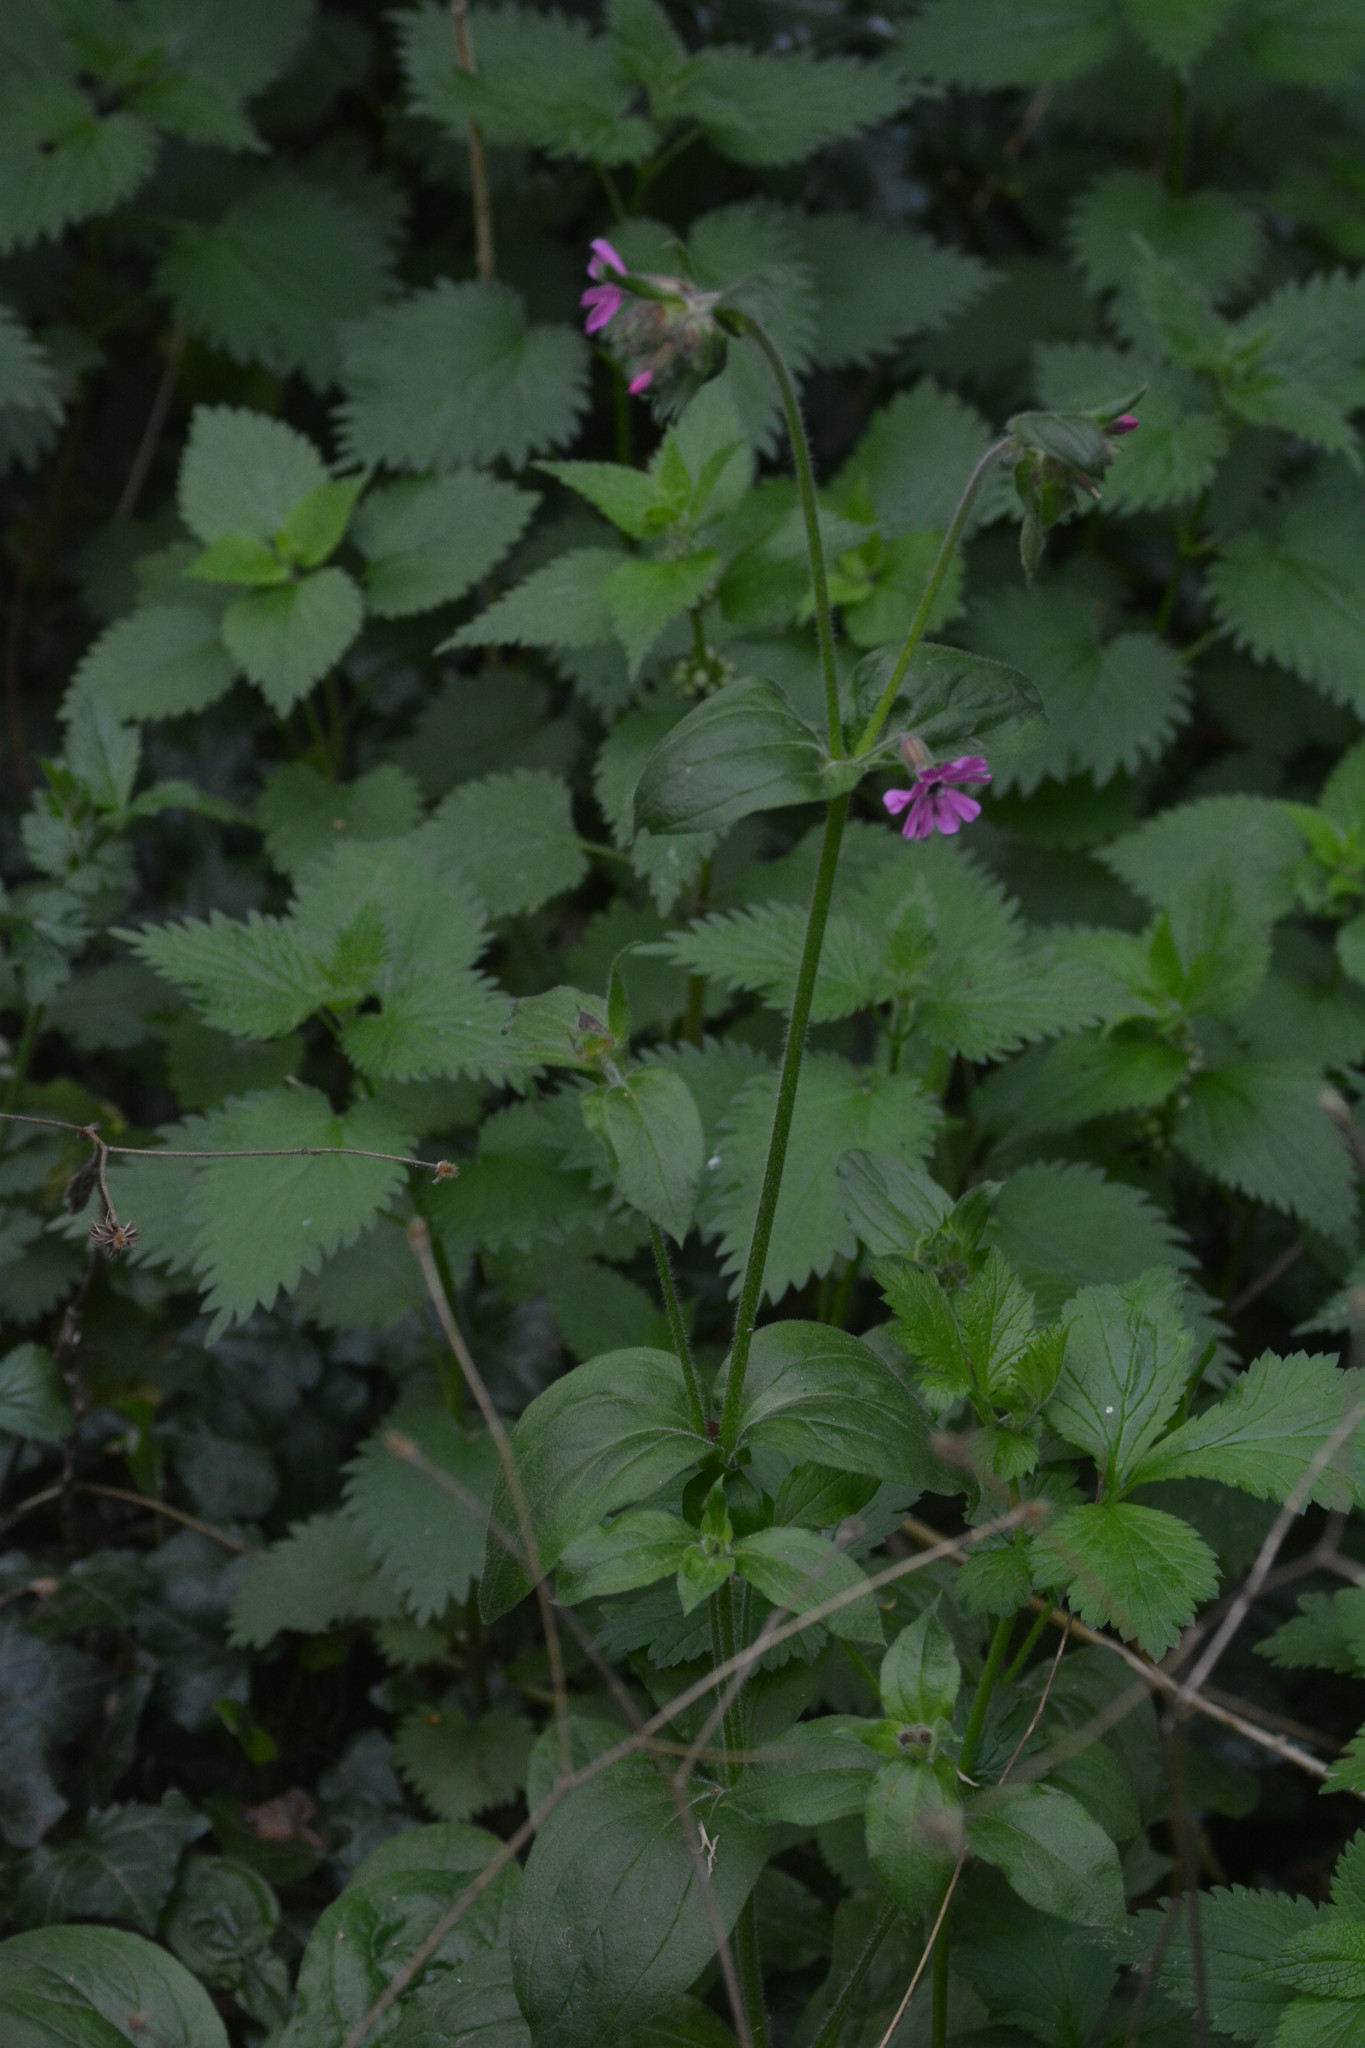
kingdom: Plantae
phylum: Tracheophyta
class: Magnoliopsida
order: Caryophyllales
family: Caryophyllaceae
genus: Silene
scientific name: Silene dioica
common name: Red campion
